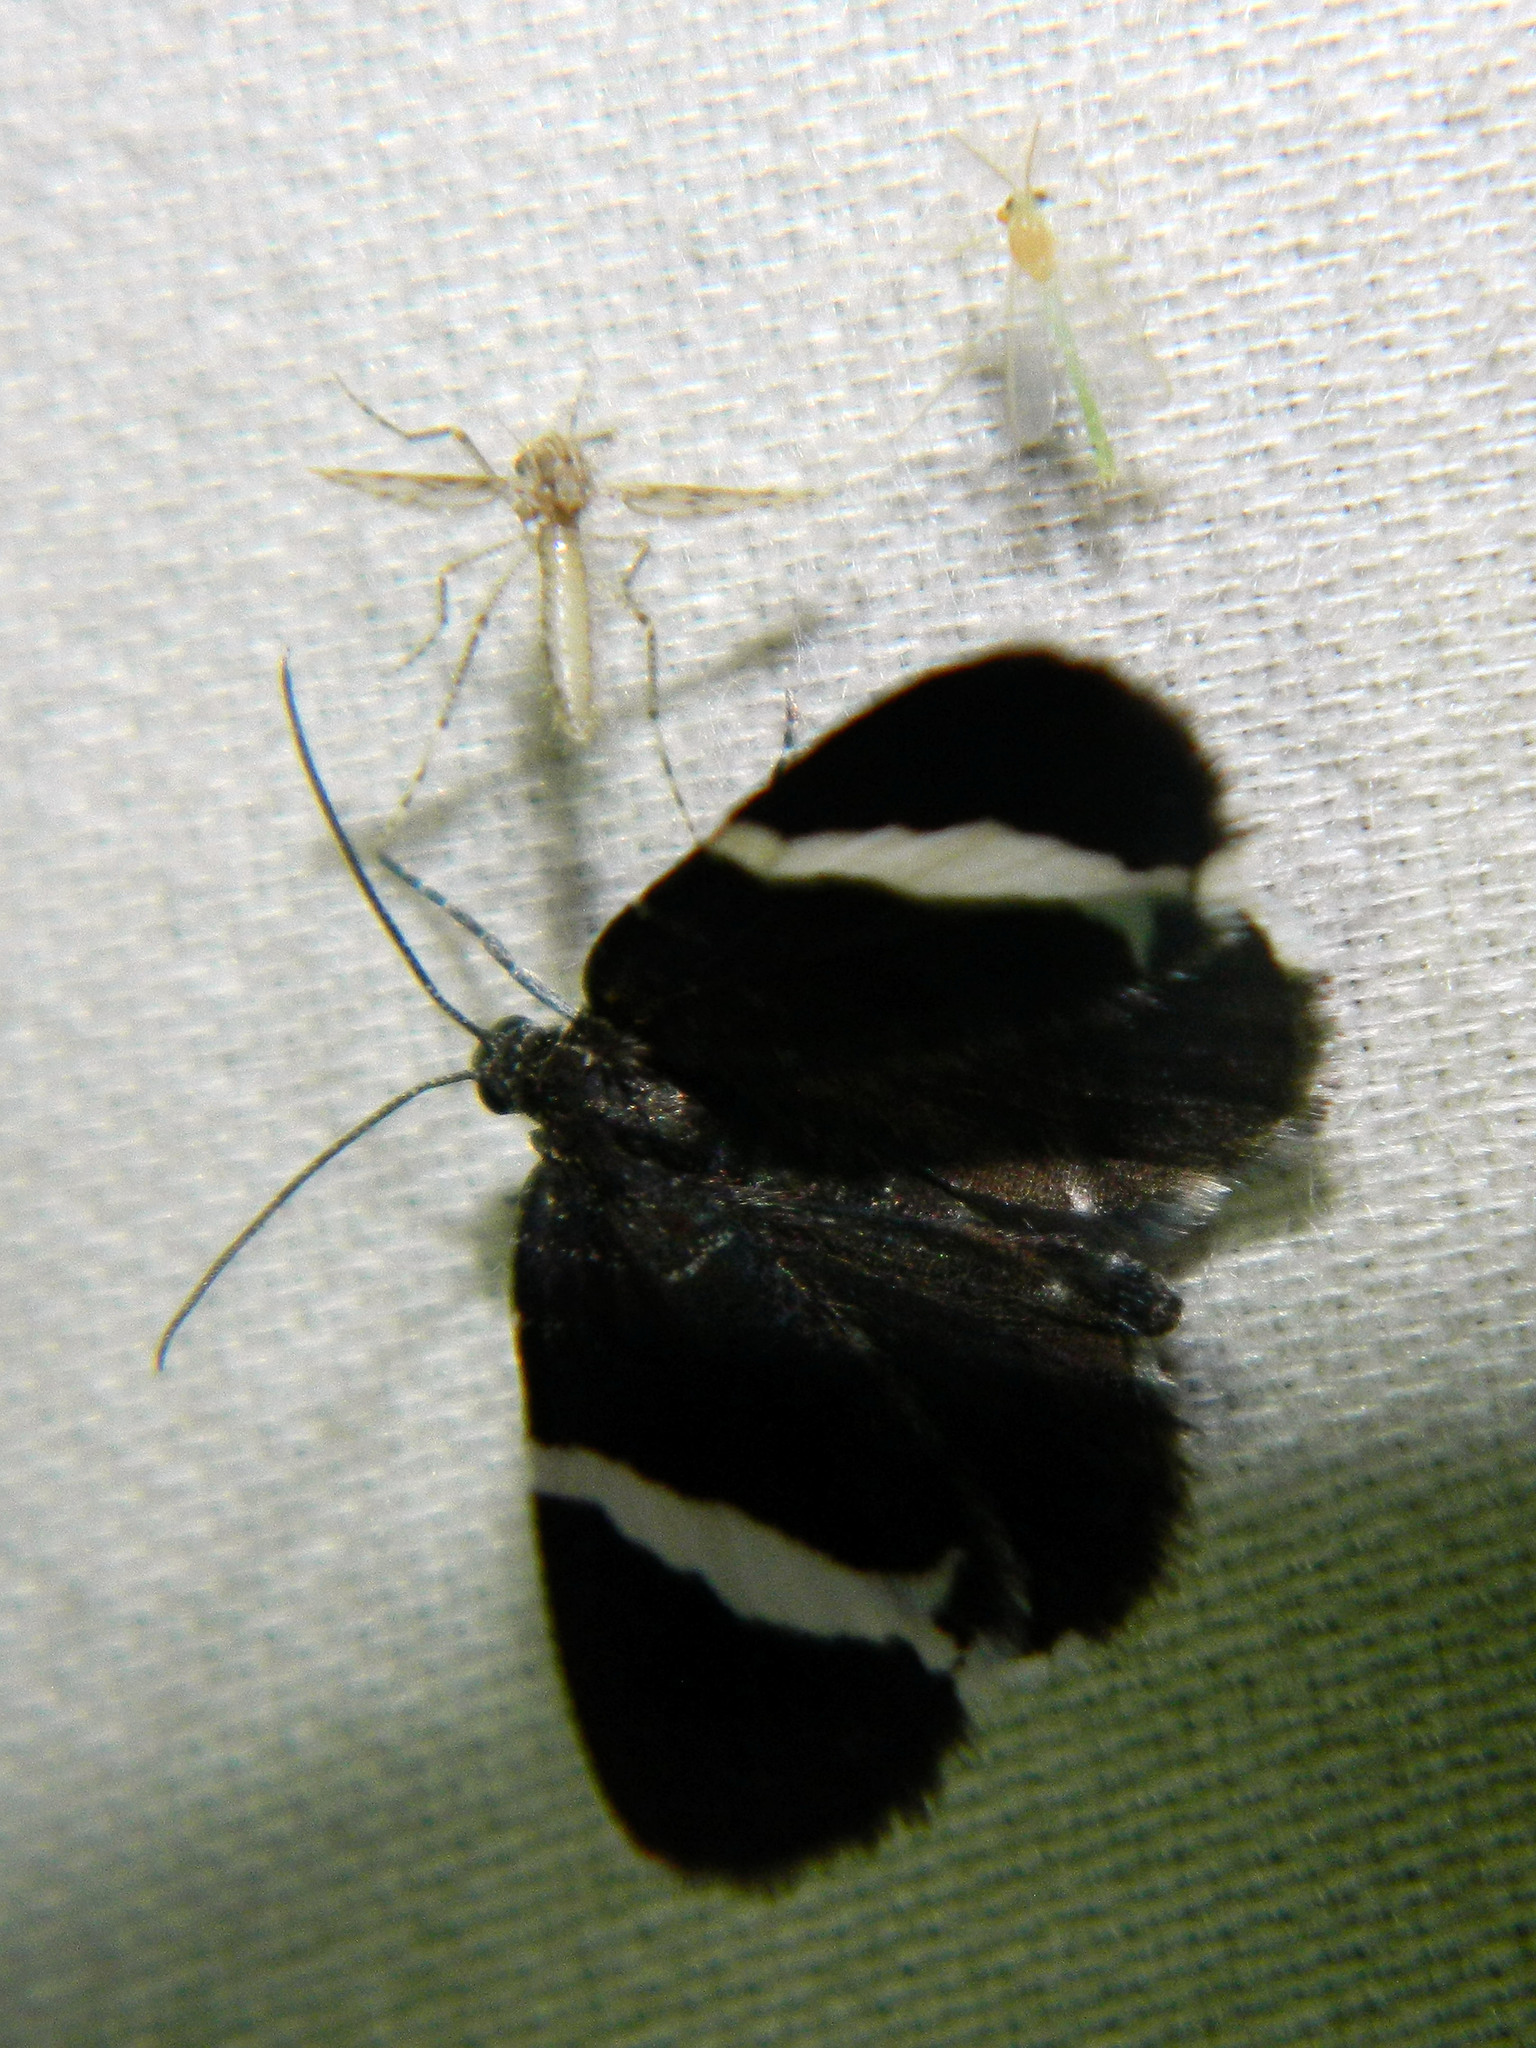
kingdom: Animalia
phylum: Arthropoda
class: Insecta
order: Lepidoptera
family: Geometridae
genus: Trichodezia
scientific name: Trichodezia albovittata
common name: White striped black
